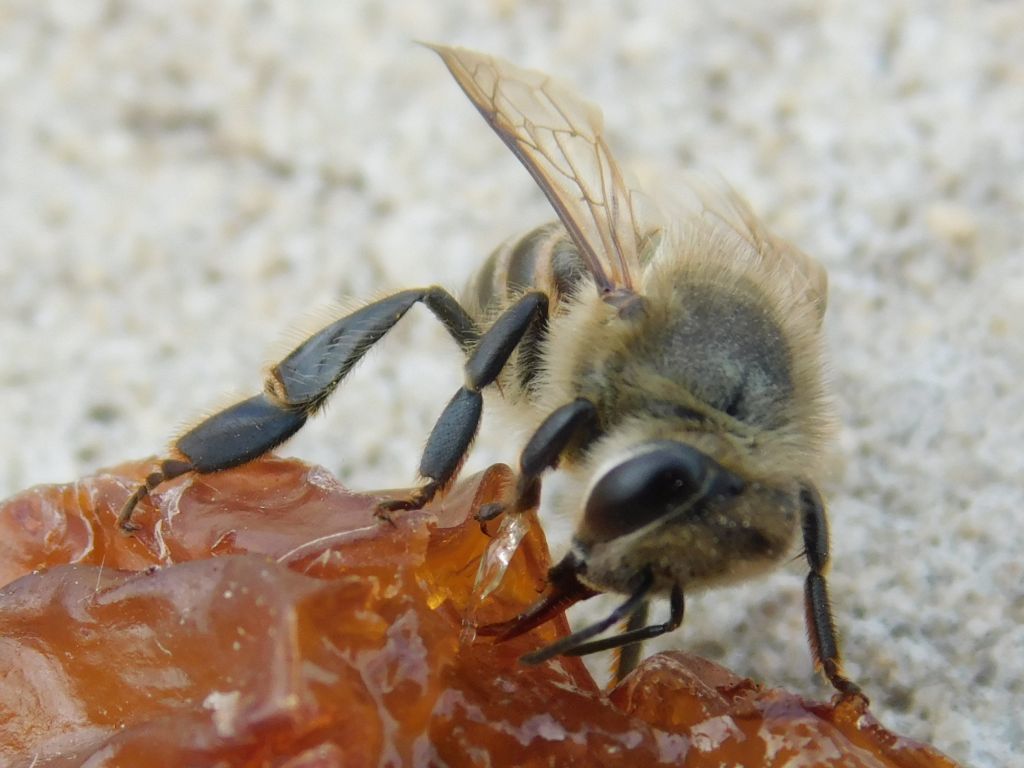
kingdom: Animalia
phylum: Arthropoda
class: Insecta
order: Hymenoptera
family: Apidae
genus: Apis
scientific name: Apis mellifera
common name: Honey bee
